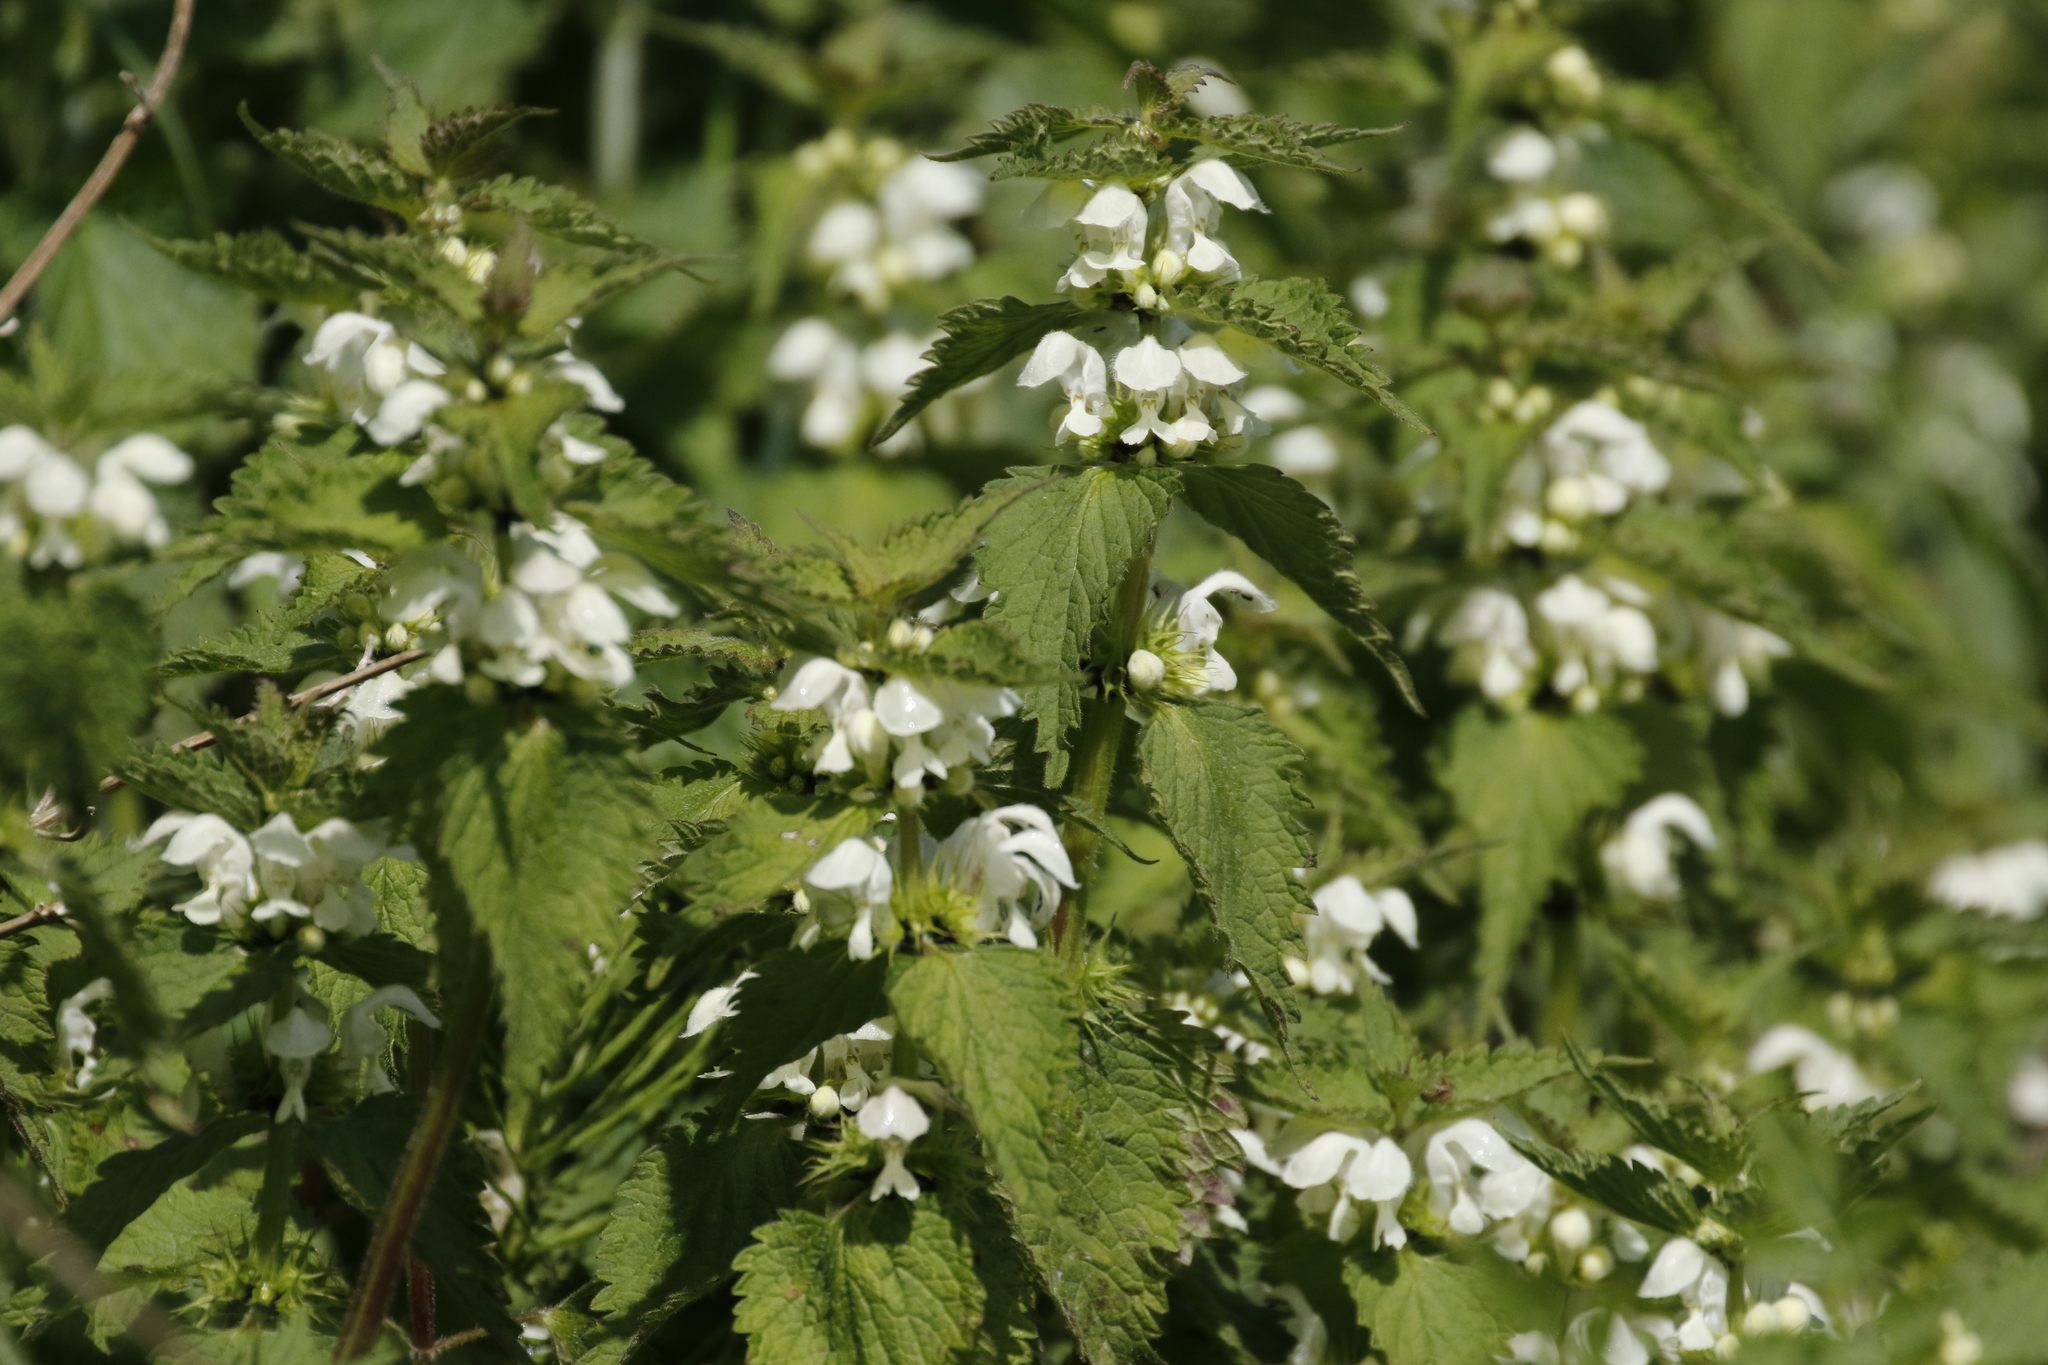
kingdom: Plantae
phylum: Tracheophyta
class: Magnoliopsida
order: Lamiales
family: Lamiaceae
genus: Lamium
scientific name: Lamium album
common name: White dead-nettle
